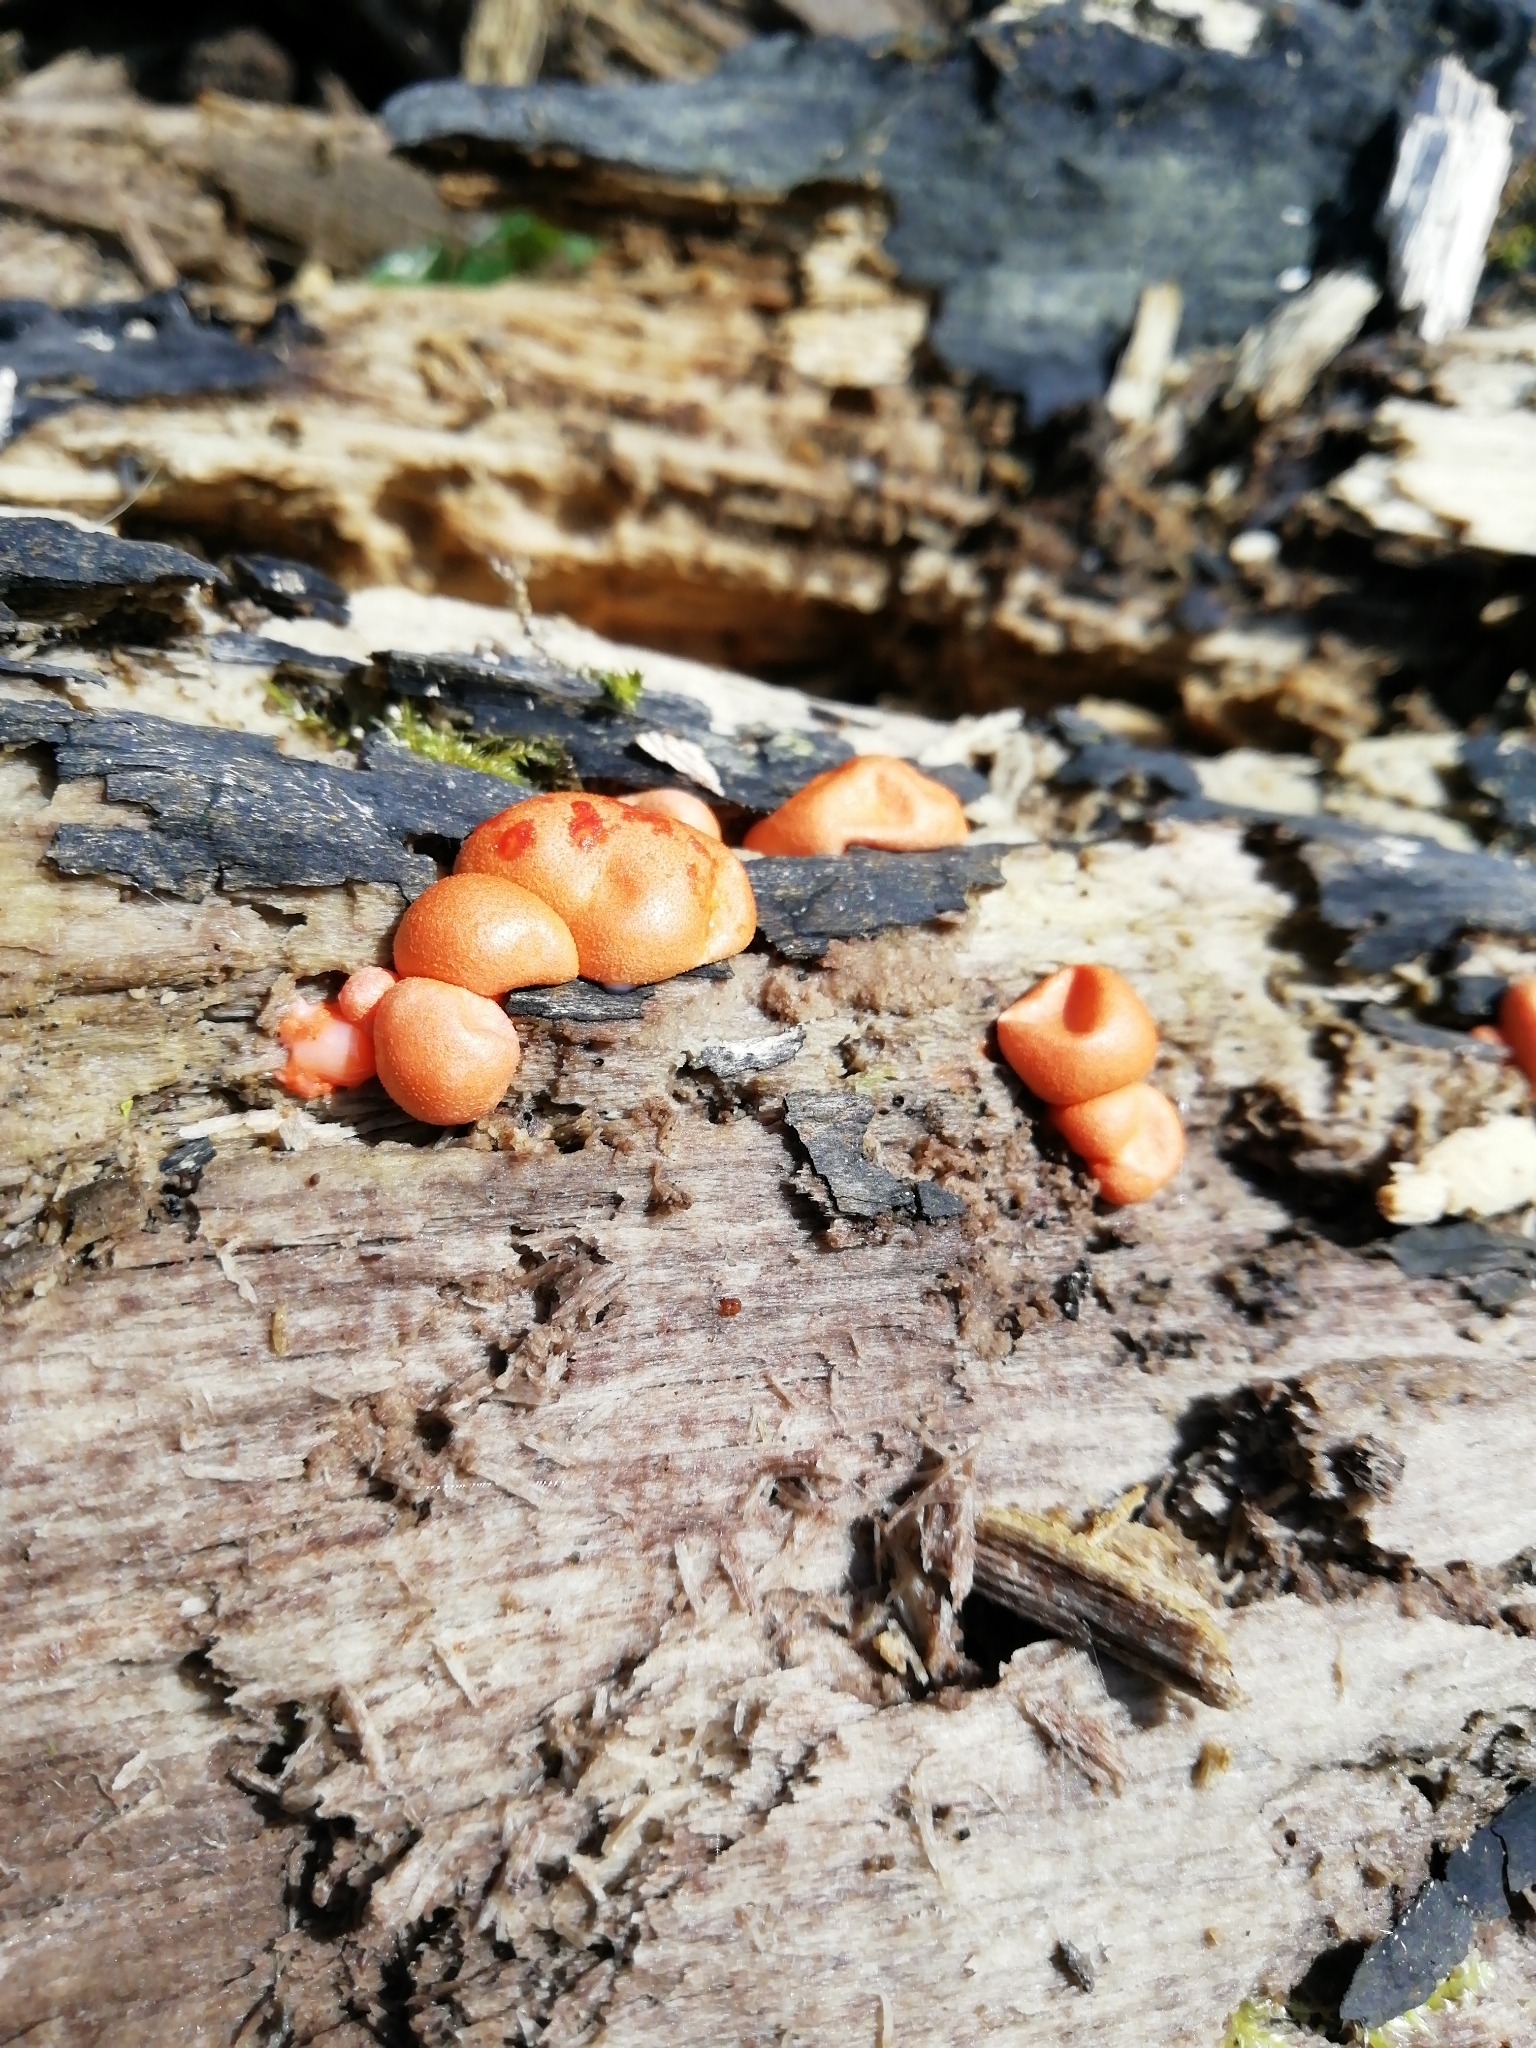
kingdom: Protozoa
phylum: Mycetozoa
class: Myxomycetes
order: Cribrariales
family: Tubiferaceae
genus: Lycogala
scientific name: Lycogala epidendrum
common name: Wolf's milk
